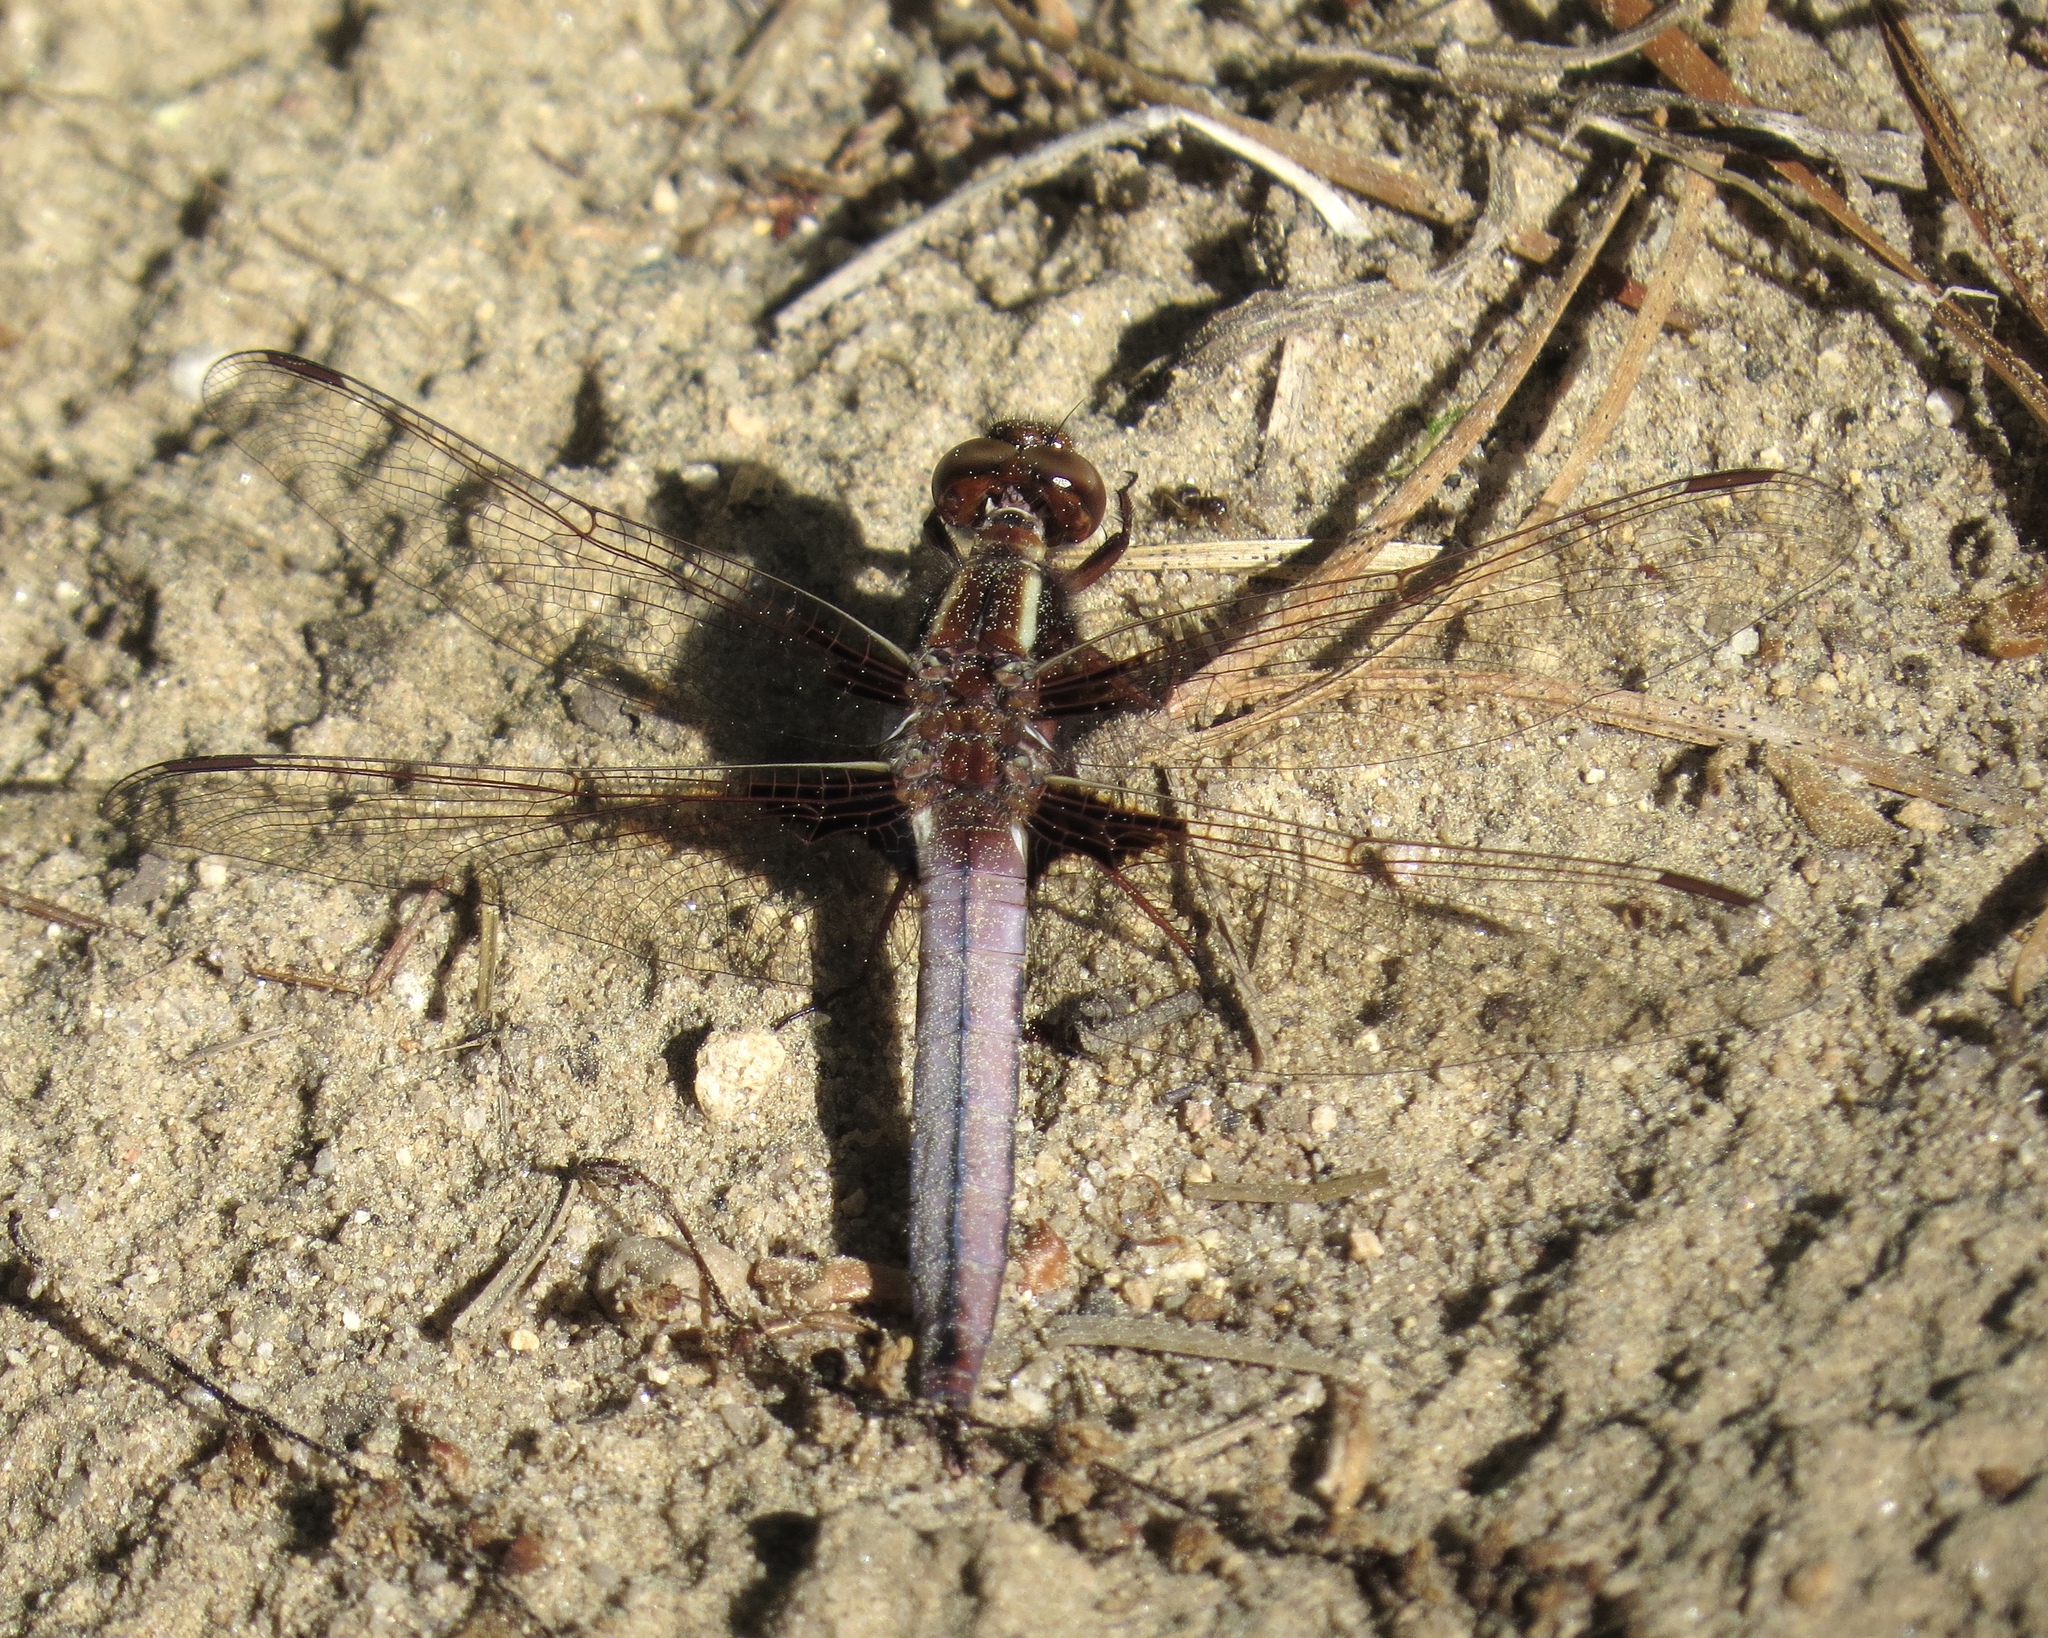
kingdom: Animalia
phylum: Arthropoda
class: Insecta
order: Odonata
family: Libellulidae
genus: Ladona
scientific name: Ladona exusta
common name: Libellule embrasée
